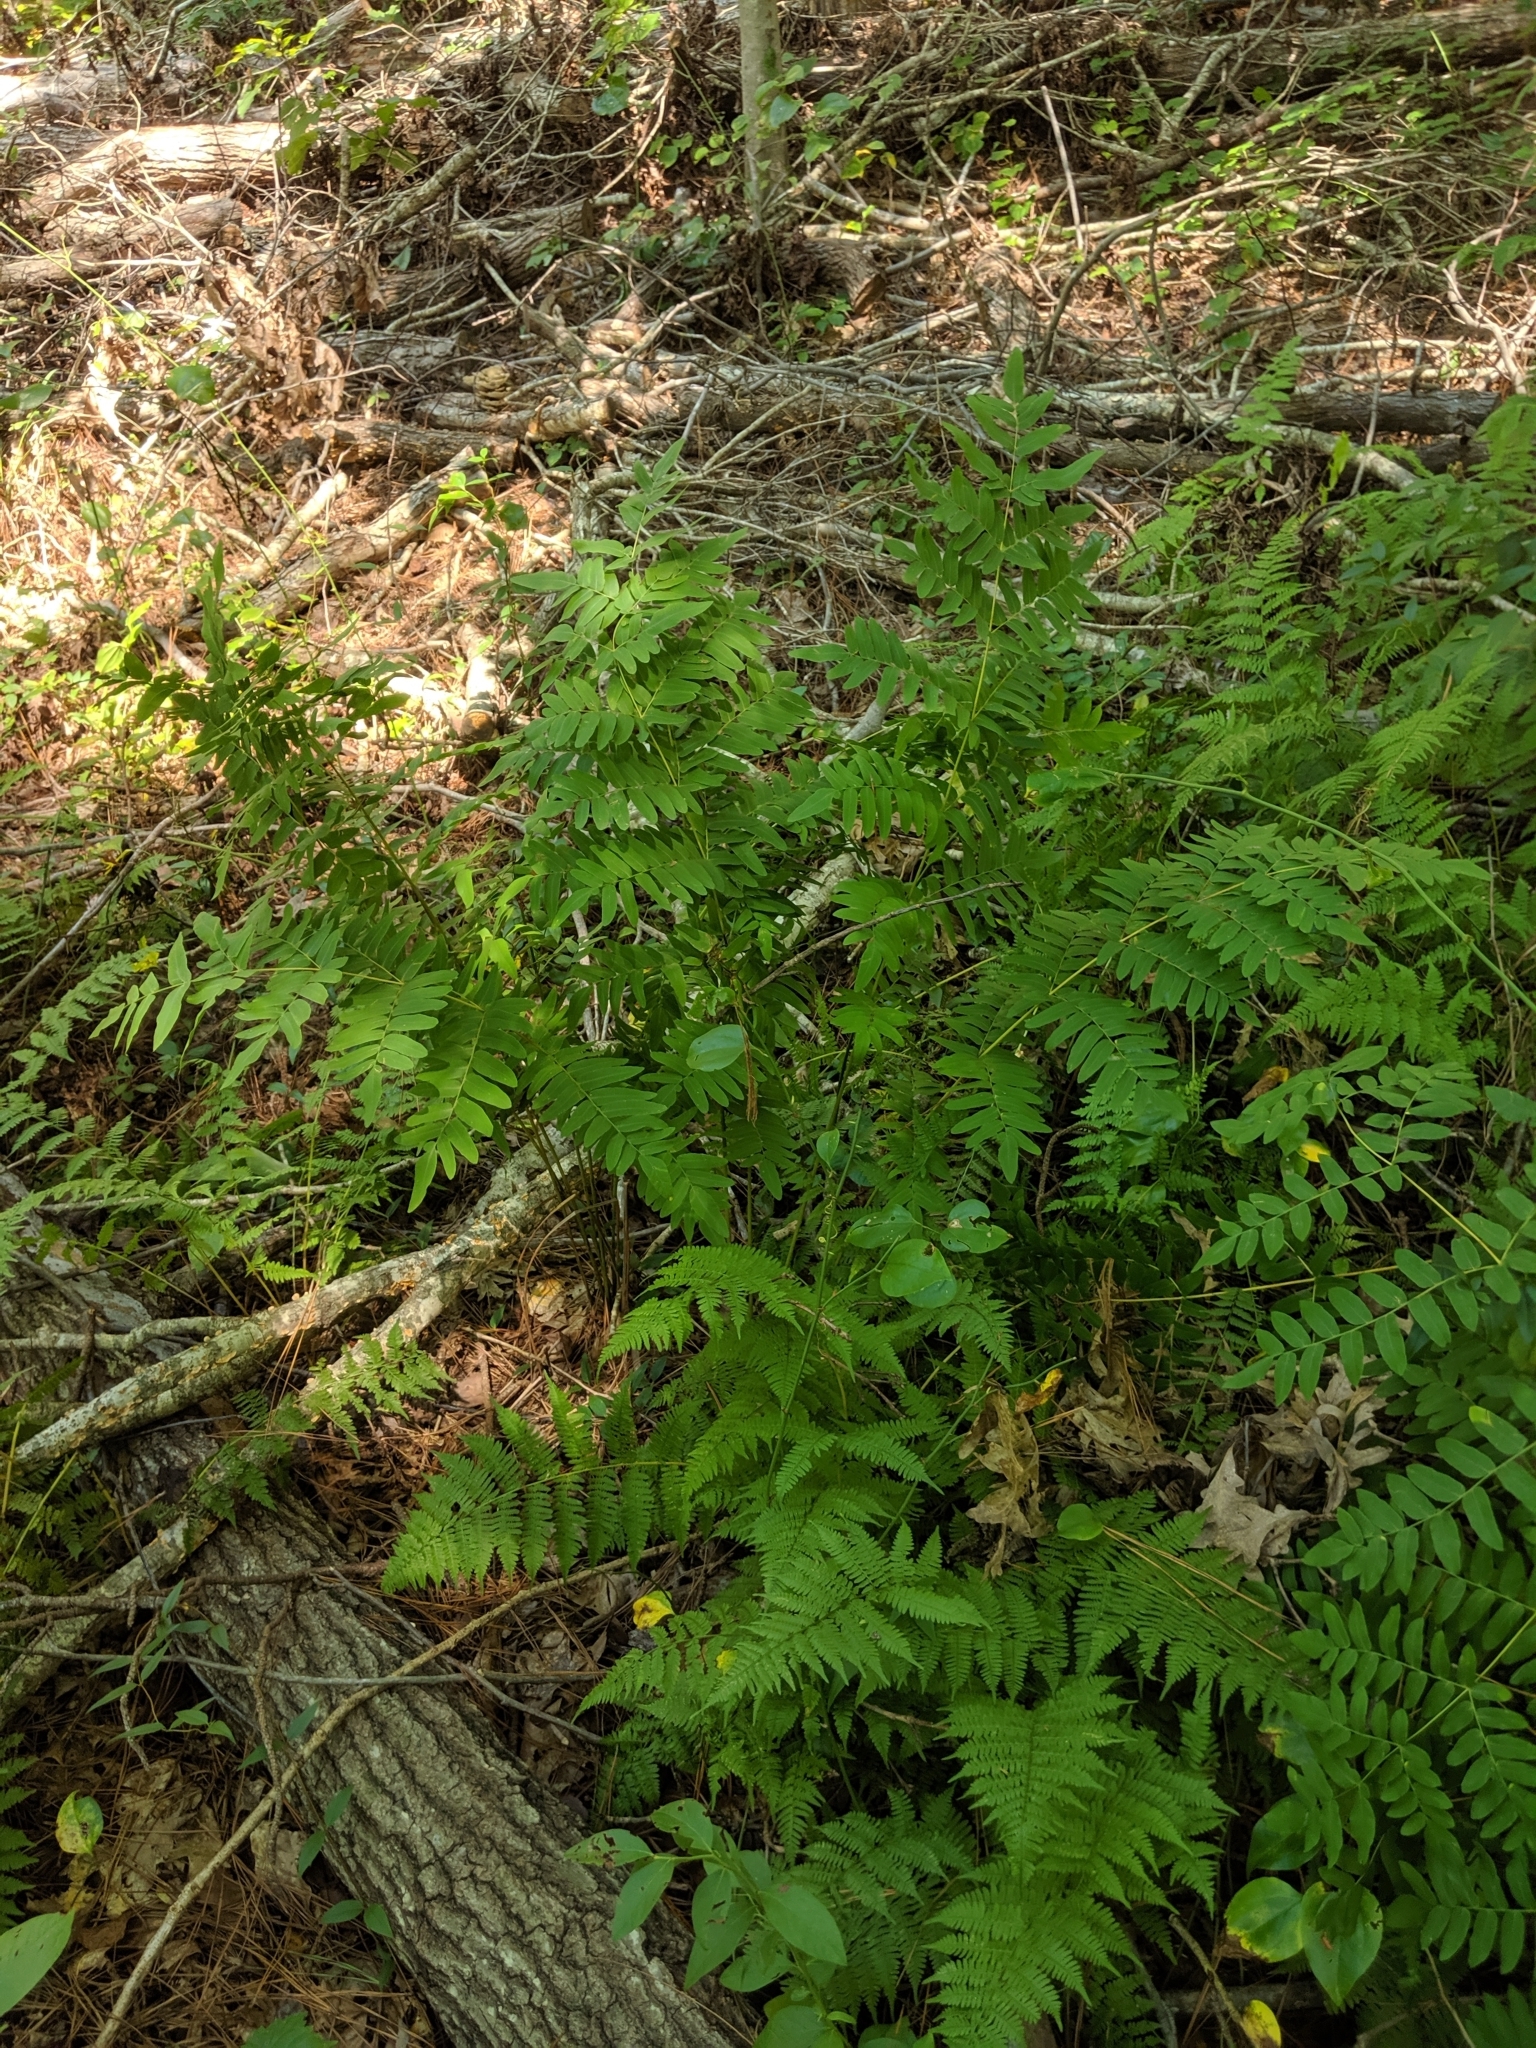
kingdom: Plantae
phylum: Tracheophyta
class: Polypodiopsida
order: Osmundales
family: Osmundaceae
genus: Osmunda
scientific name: Osmunda spectabilis
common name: American royal fern
